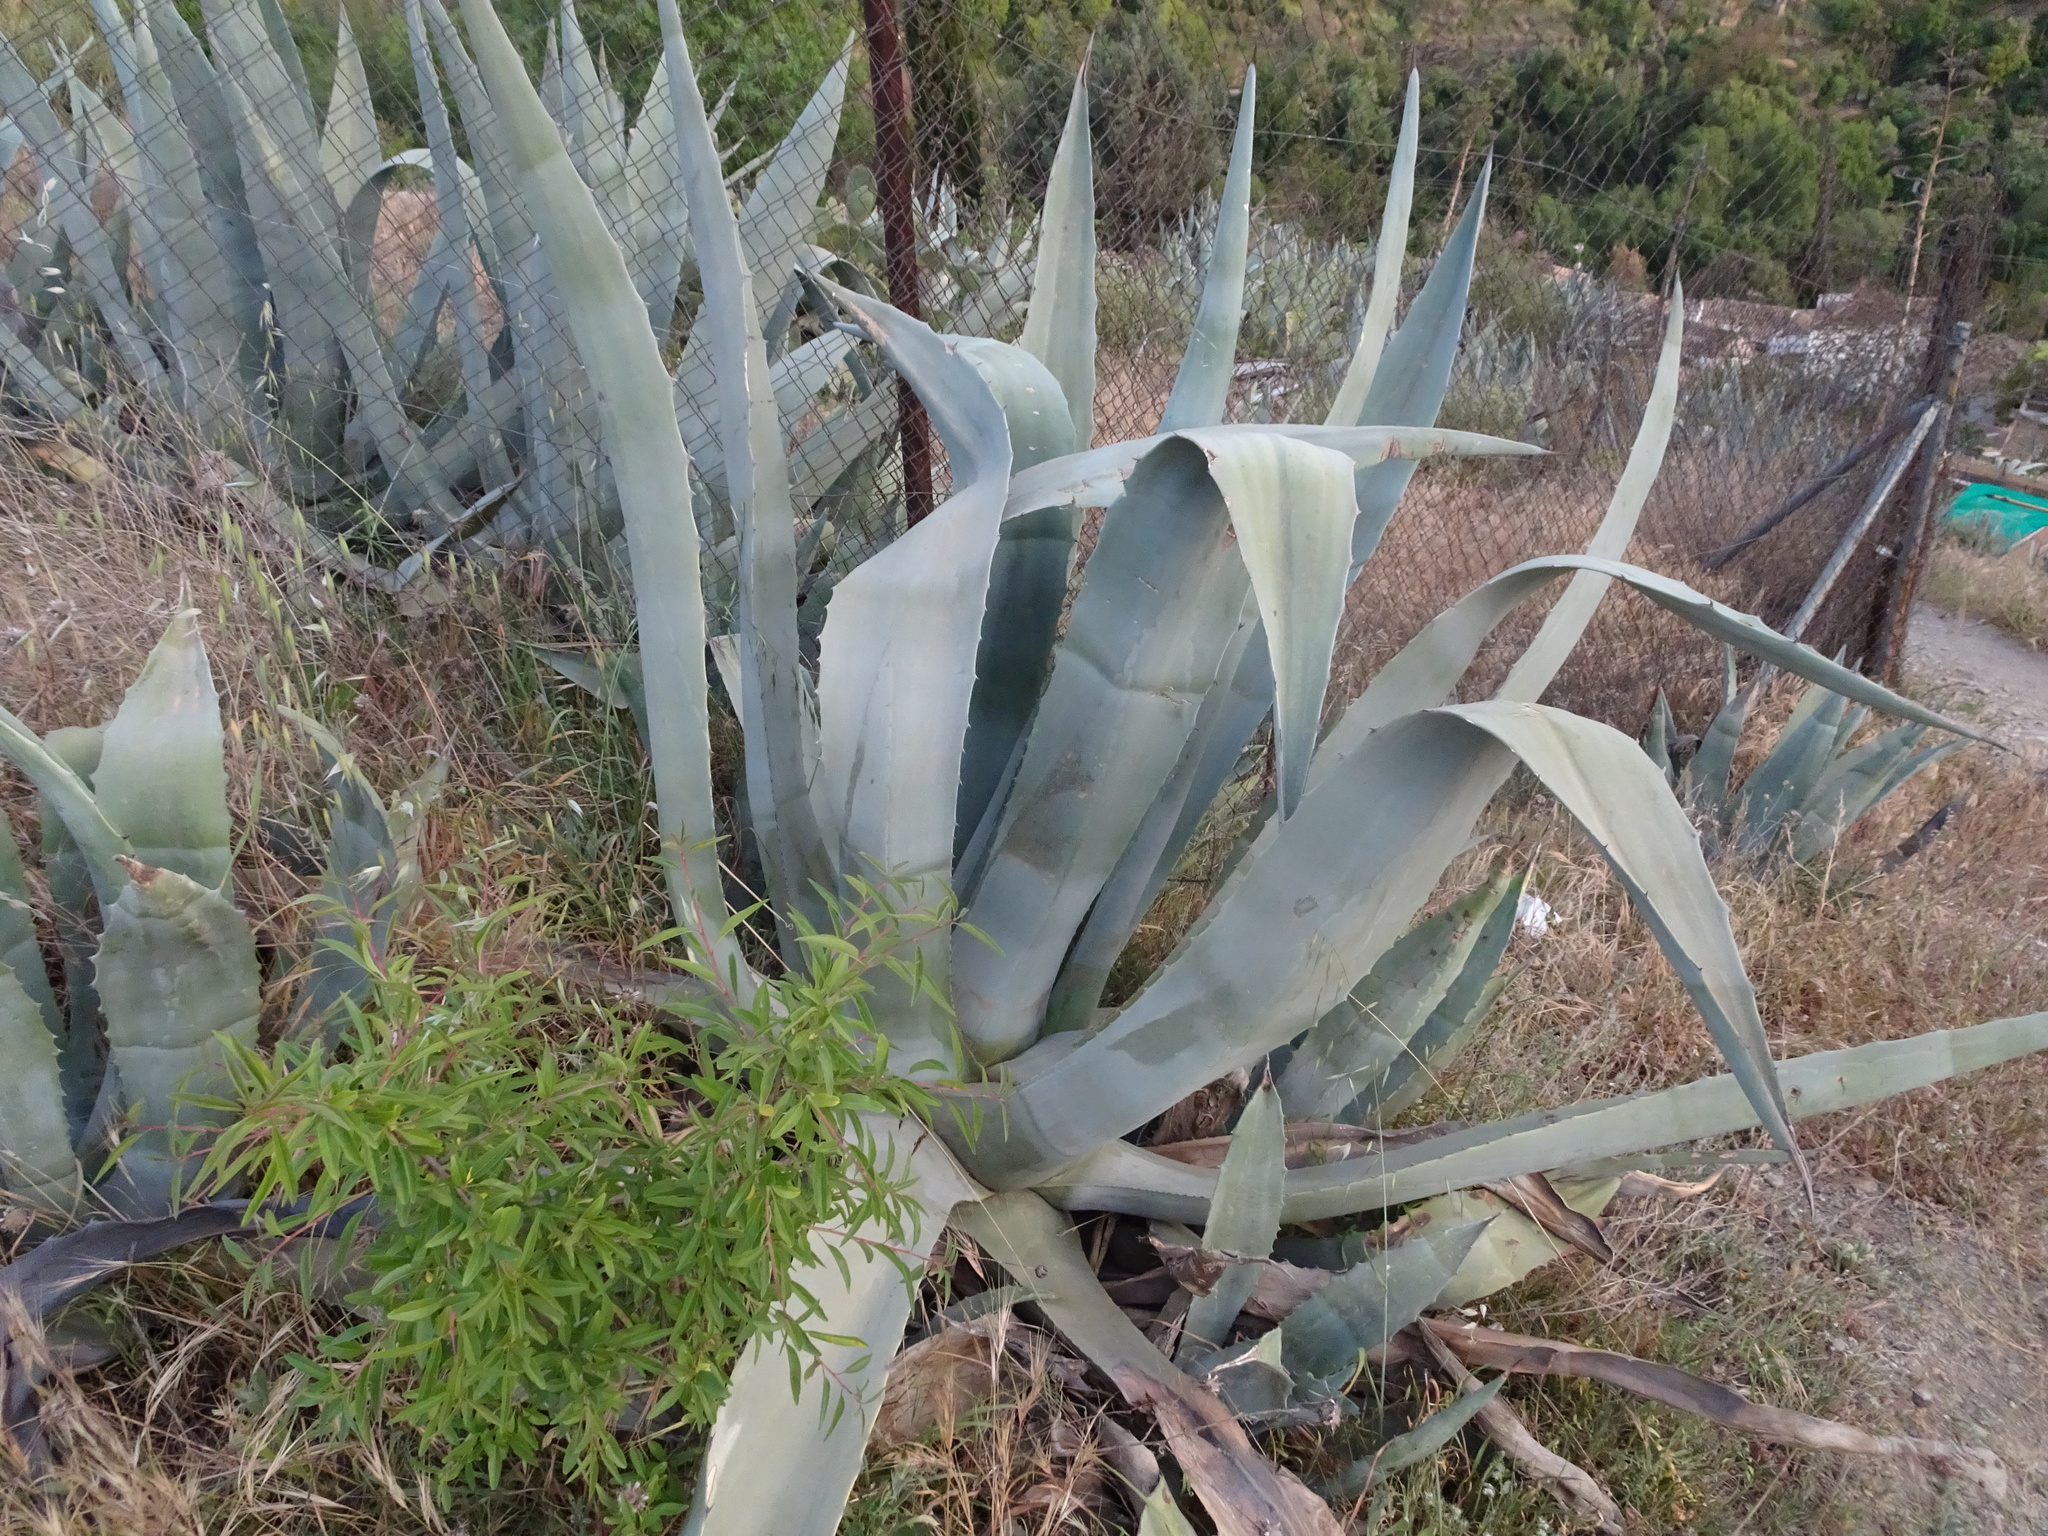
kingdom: Plantae
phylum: Tracheophyta
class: Liliopsida
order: Asparagales
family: Asparagaceae
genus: Agave
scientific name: Agave americana
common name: Centuryplant
